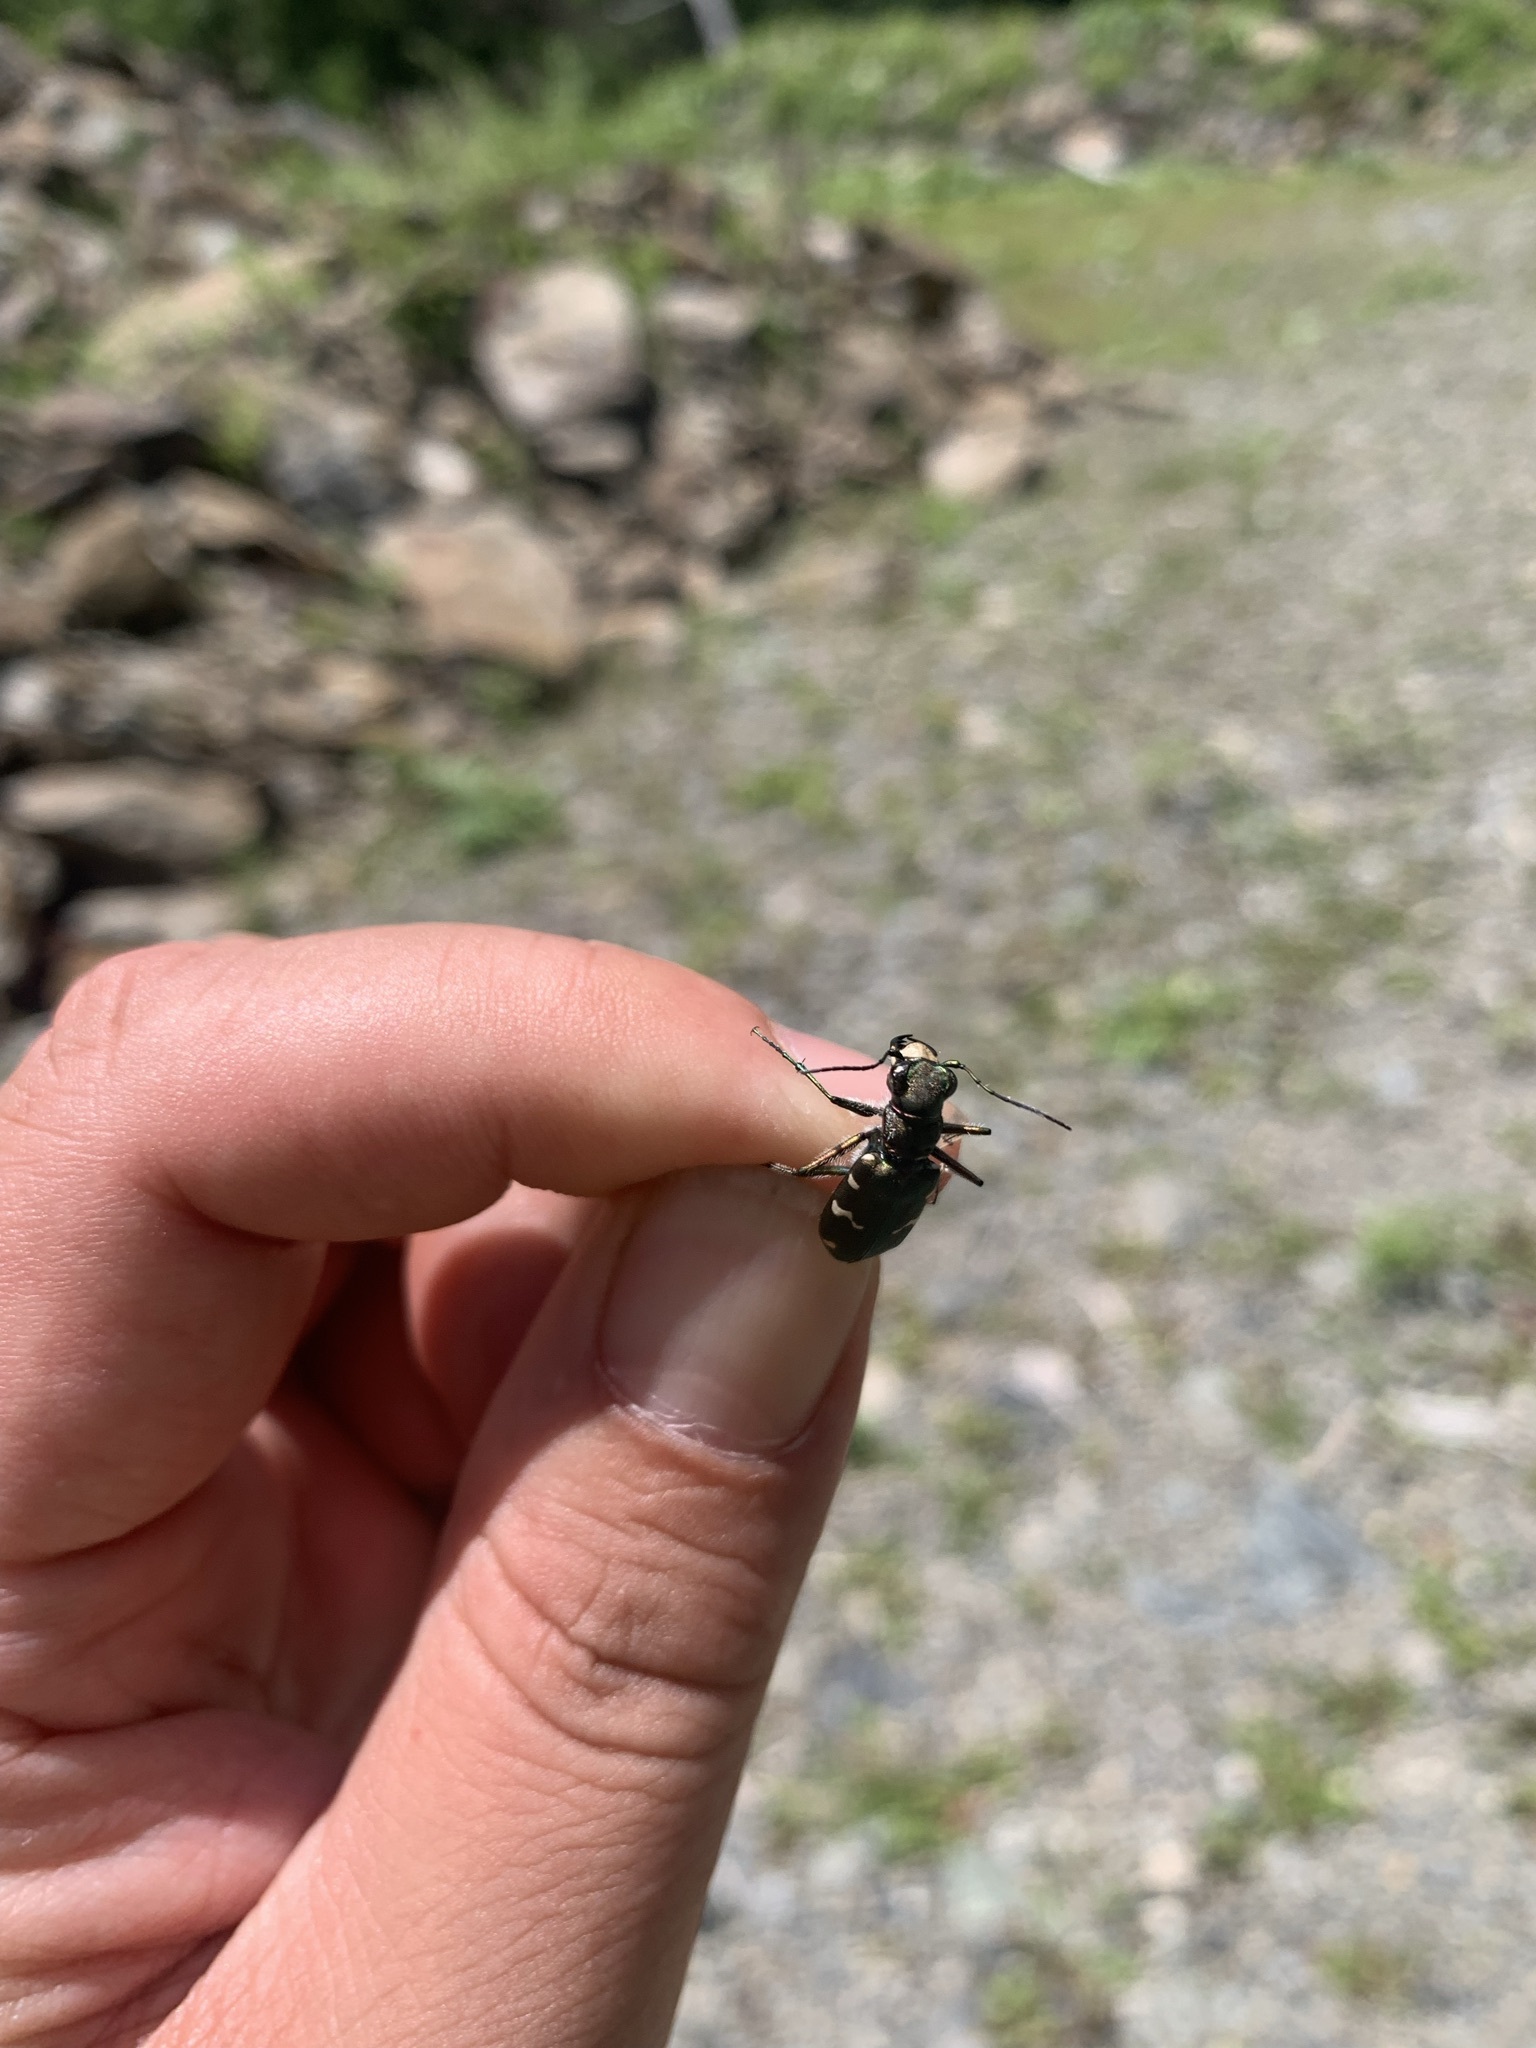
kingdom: Animalia
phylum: Arthropoda
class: Insecta
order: Coleoptera
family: Carabidae
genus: Cicindela
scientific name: Cicindela sachalinensis
